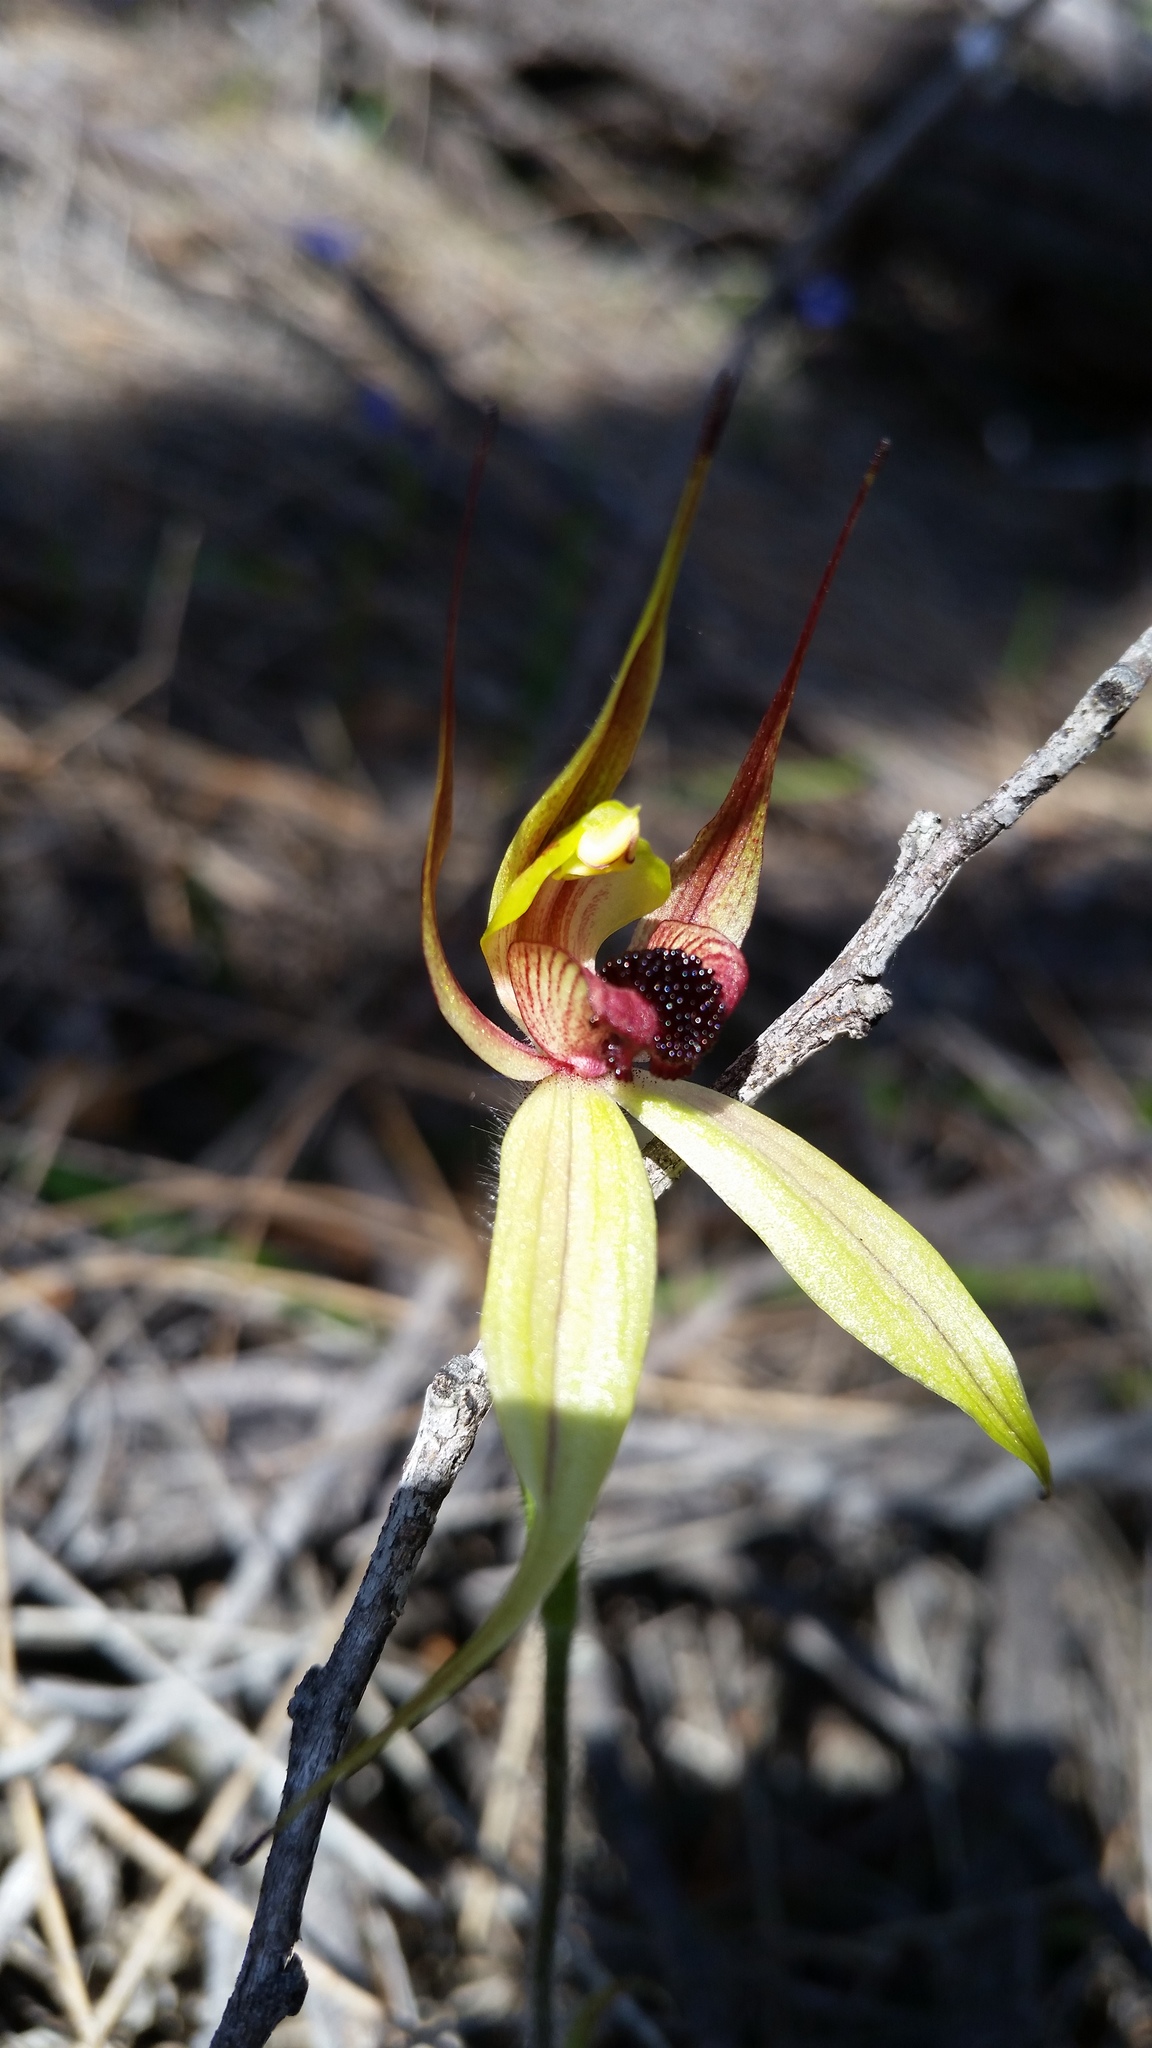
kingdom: Plantae
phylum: Tracheophyta
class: Liliopsida
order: Asparagales
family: Orchidaceae
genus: Caladenia
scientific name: Caladenia macrostylis
